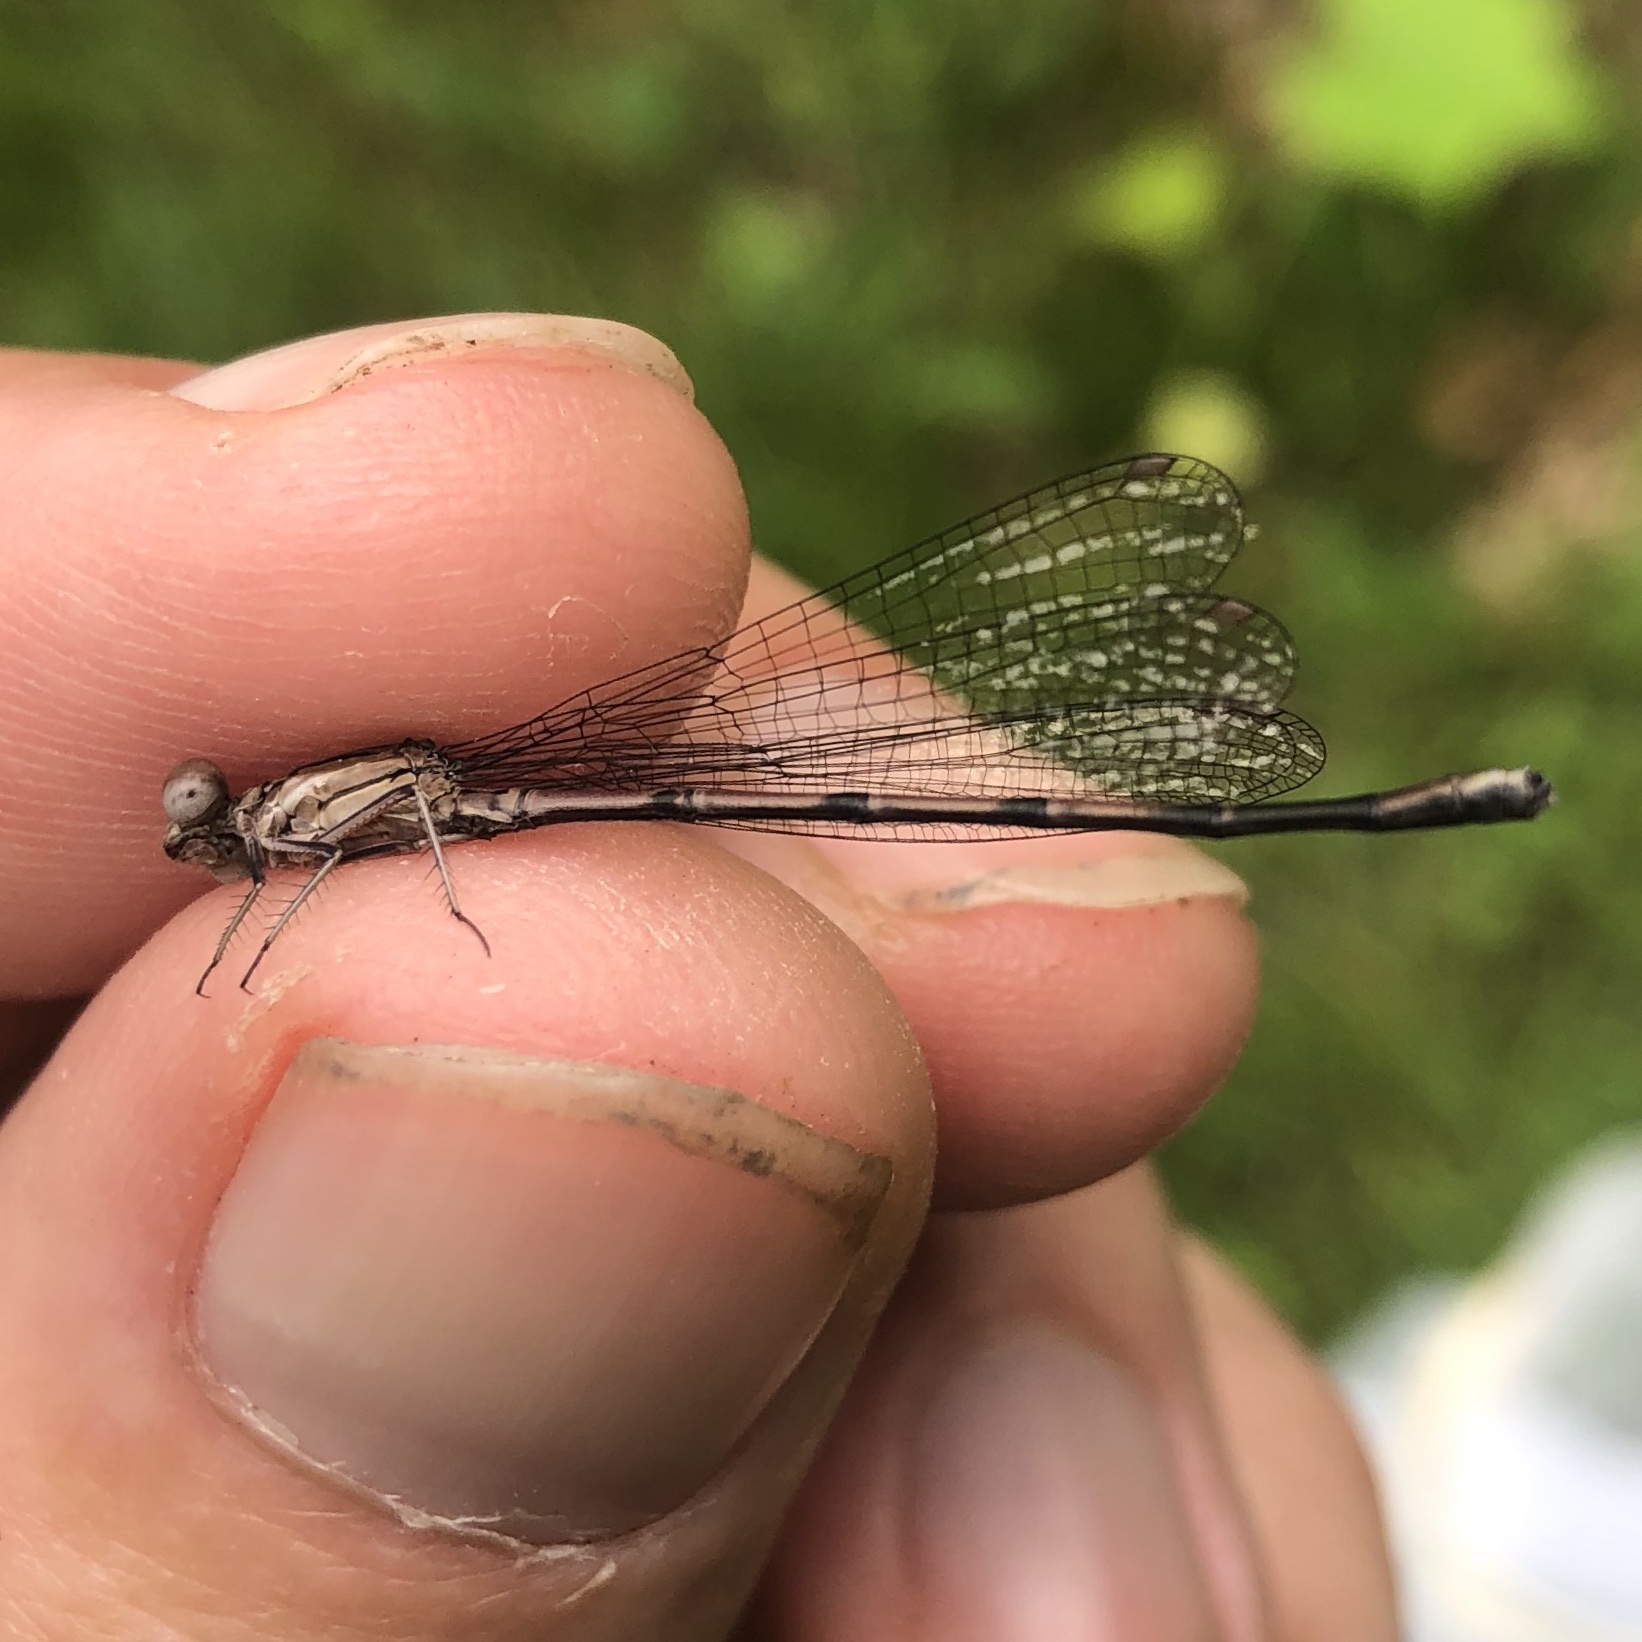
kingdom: Animalia
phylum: Arthropoda
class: Insecta
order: Odonata
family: Coenagrionidae
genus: Argia
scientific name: Argia fumipennis
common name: Variable dancer
